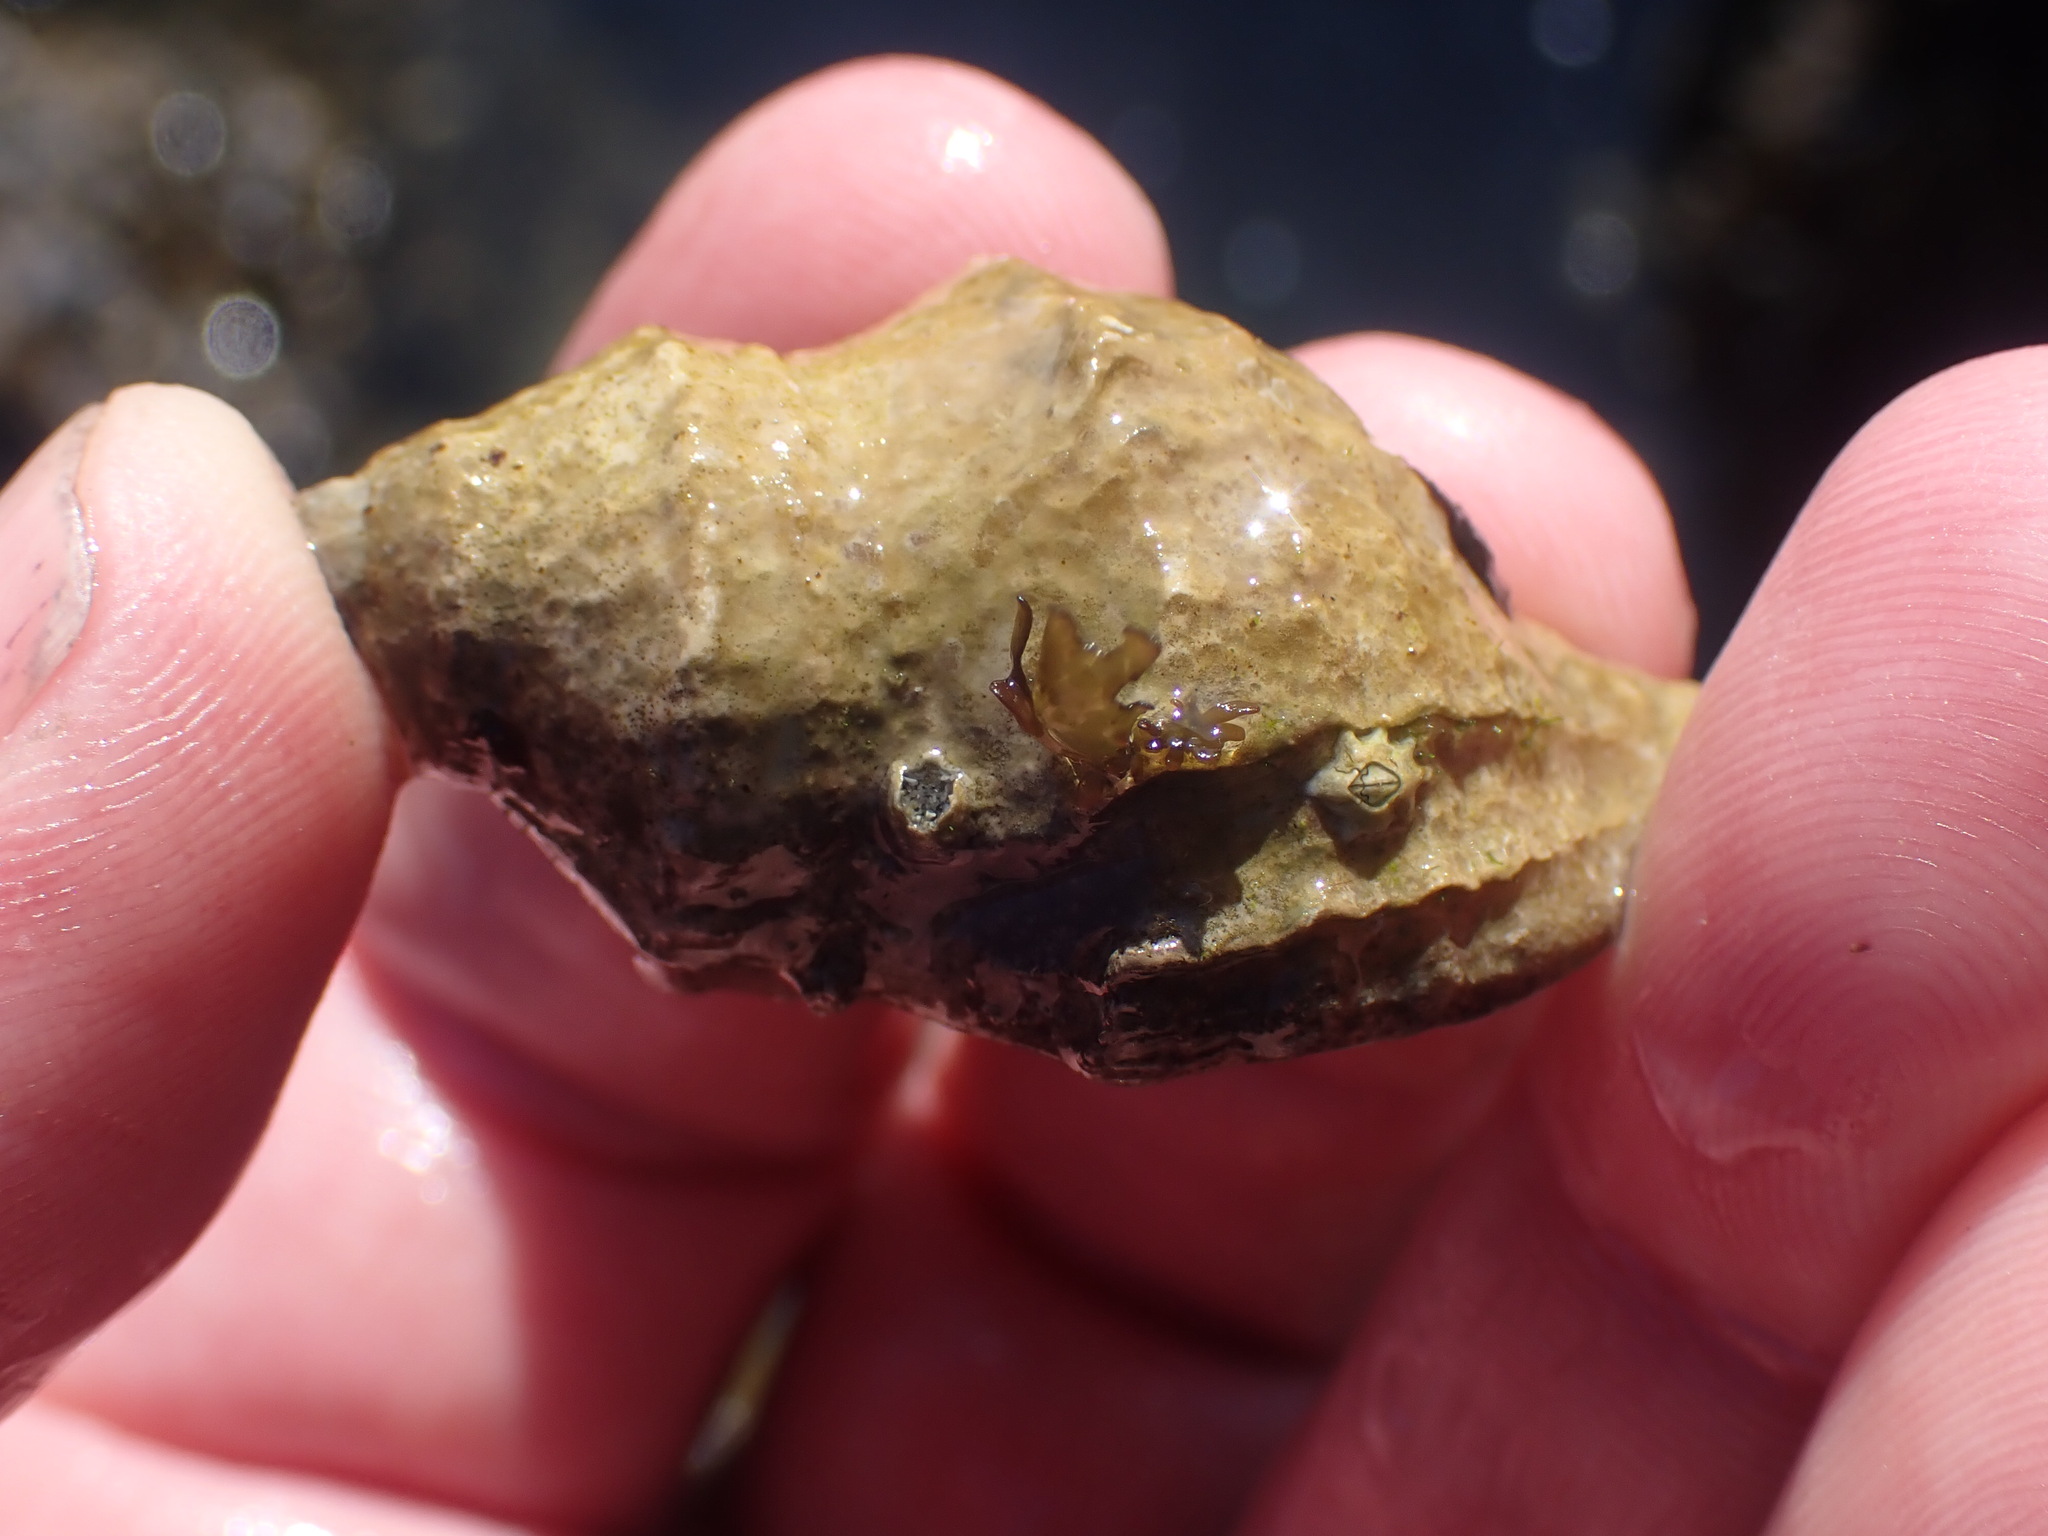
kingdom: Animalia
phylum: Mollusca
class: Gastropoda
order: Neogastropoda
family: Muricidae
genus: Nucella
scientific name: Nucella lamellosa
